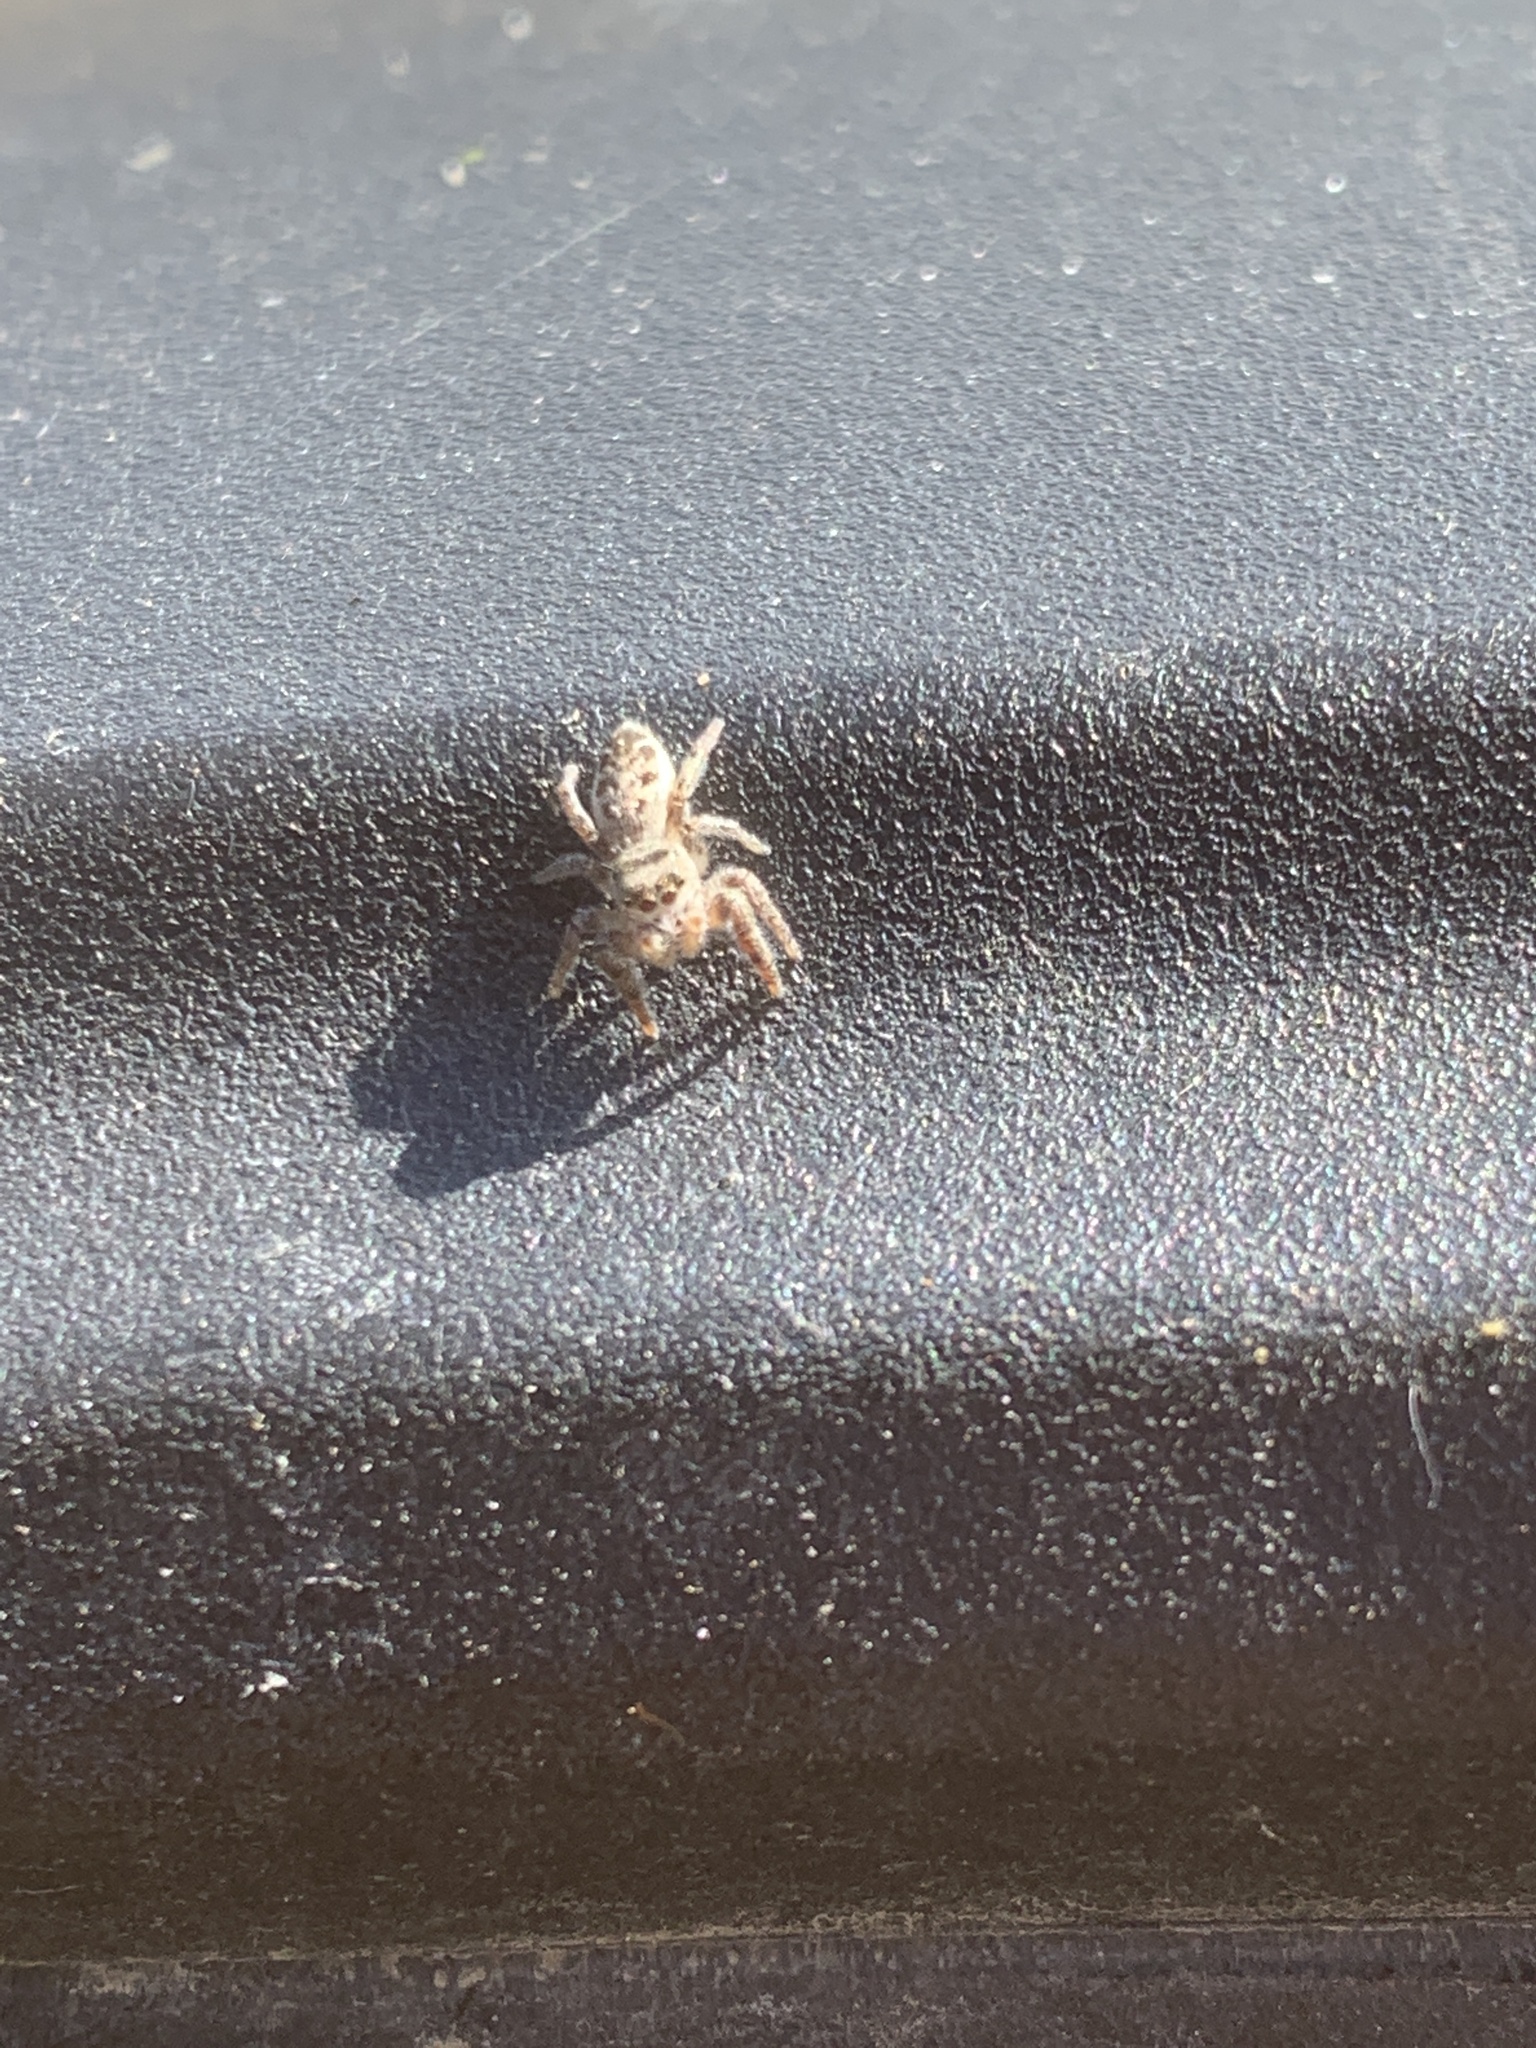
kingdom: Animalia
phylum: Arthropoda
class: Arachnida
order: Araneae
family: Salticidae
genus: Eris
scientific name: Eris militaris
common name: Bronze jumper
